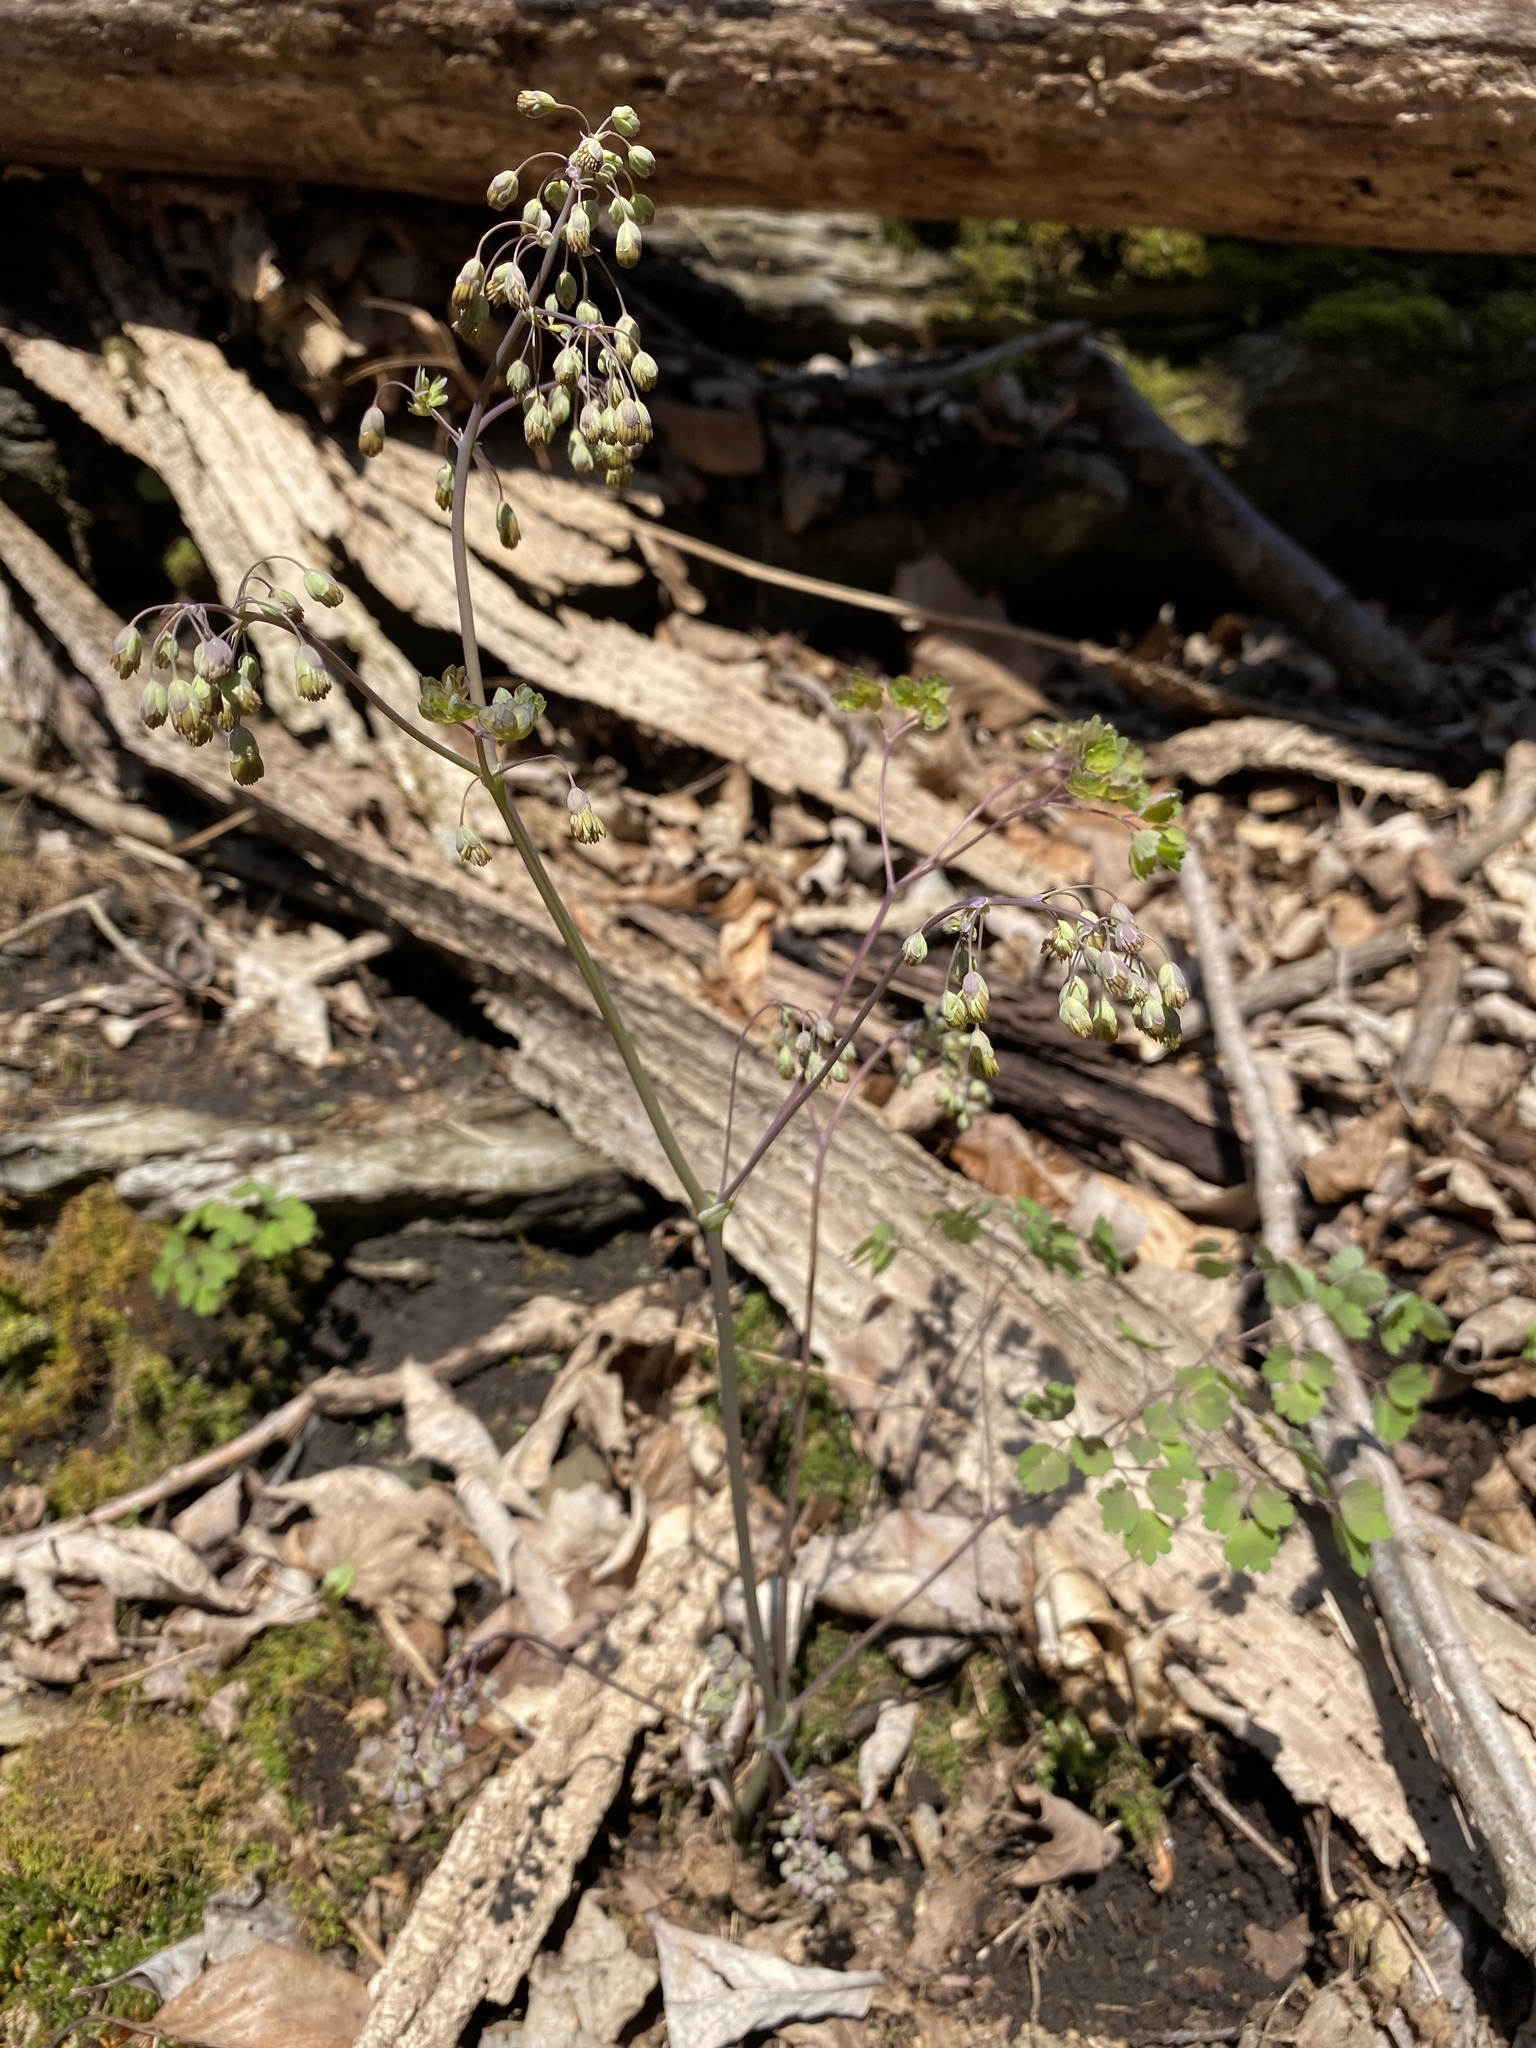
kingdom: Plantae
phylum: Tracheophyta
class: Magnoliopsida
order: Ranunculales
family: Ranunculaceae
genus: Thalictrum
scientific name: Thalictrum dioicum
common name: Early meadow-rue
